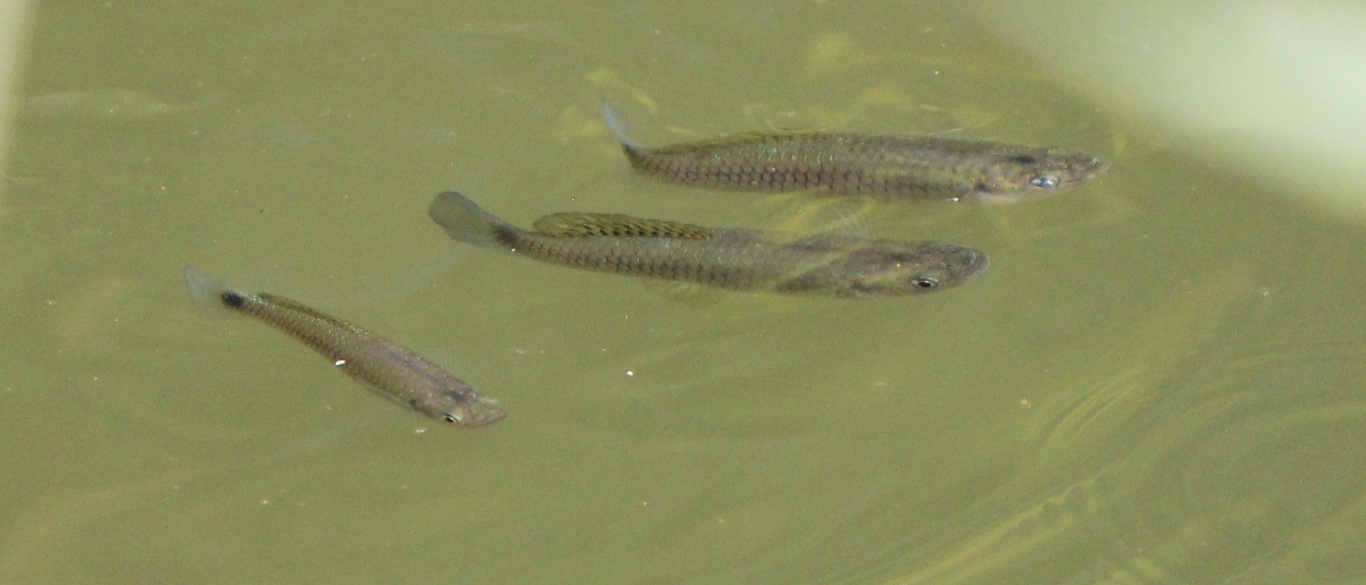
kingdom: Animalia
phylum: Chordata
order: Cyprinodontiformes
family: Poeciliidae
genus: Pseudoxiphophorus
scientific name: Pseudoxiphophorus bimaculatus
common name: Twospot livebearer
